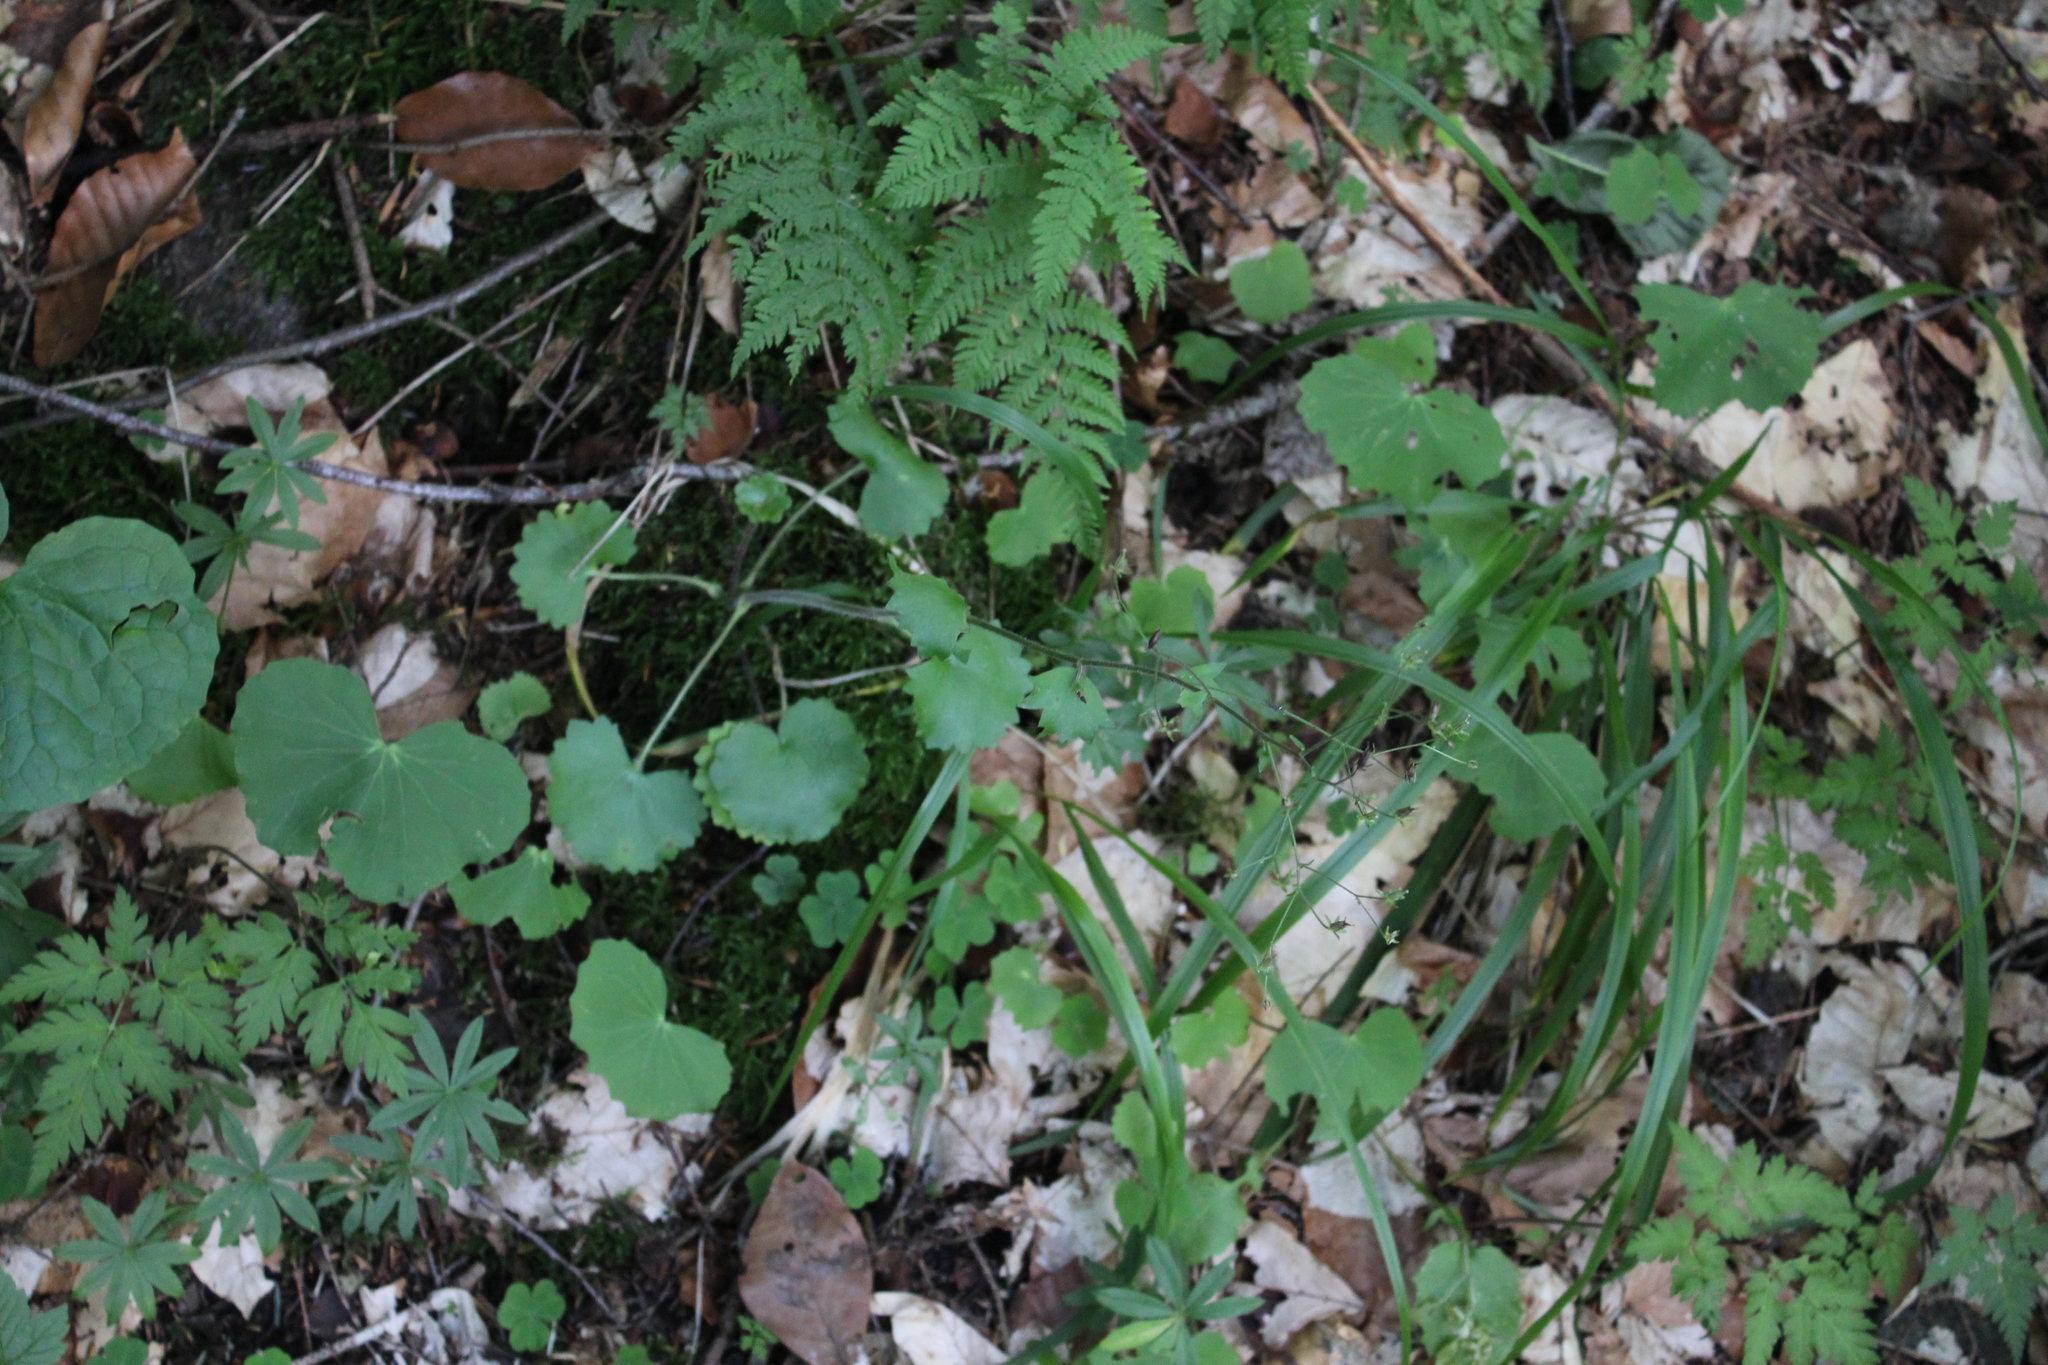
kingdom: Plantae
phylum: Tracheophyta
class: Magnoliopsida
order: Saxifragales
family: Saxifragaceae
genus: Saxifraga
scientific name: Saxifraga rotundifolia
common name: Round-leaved saxifrage
